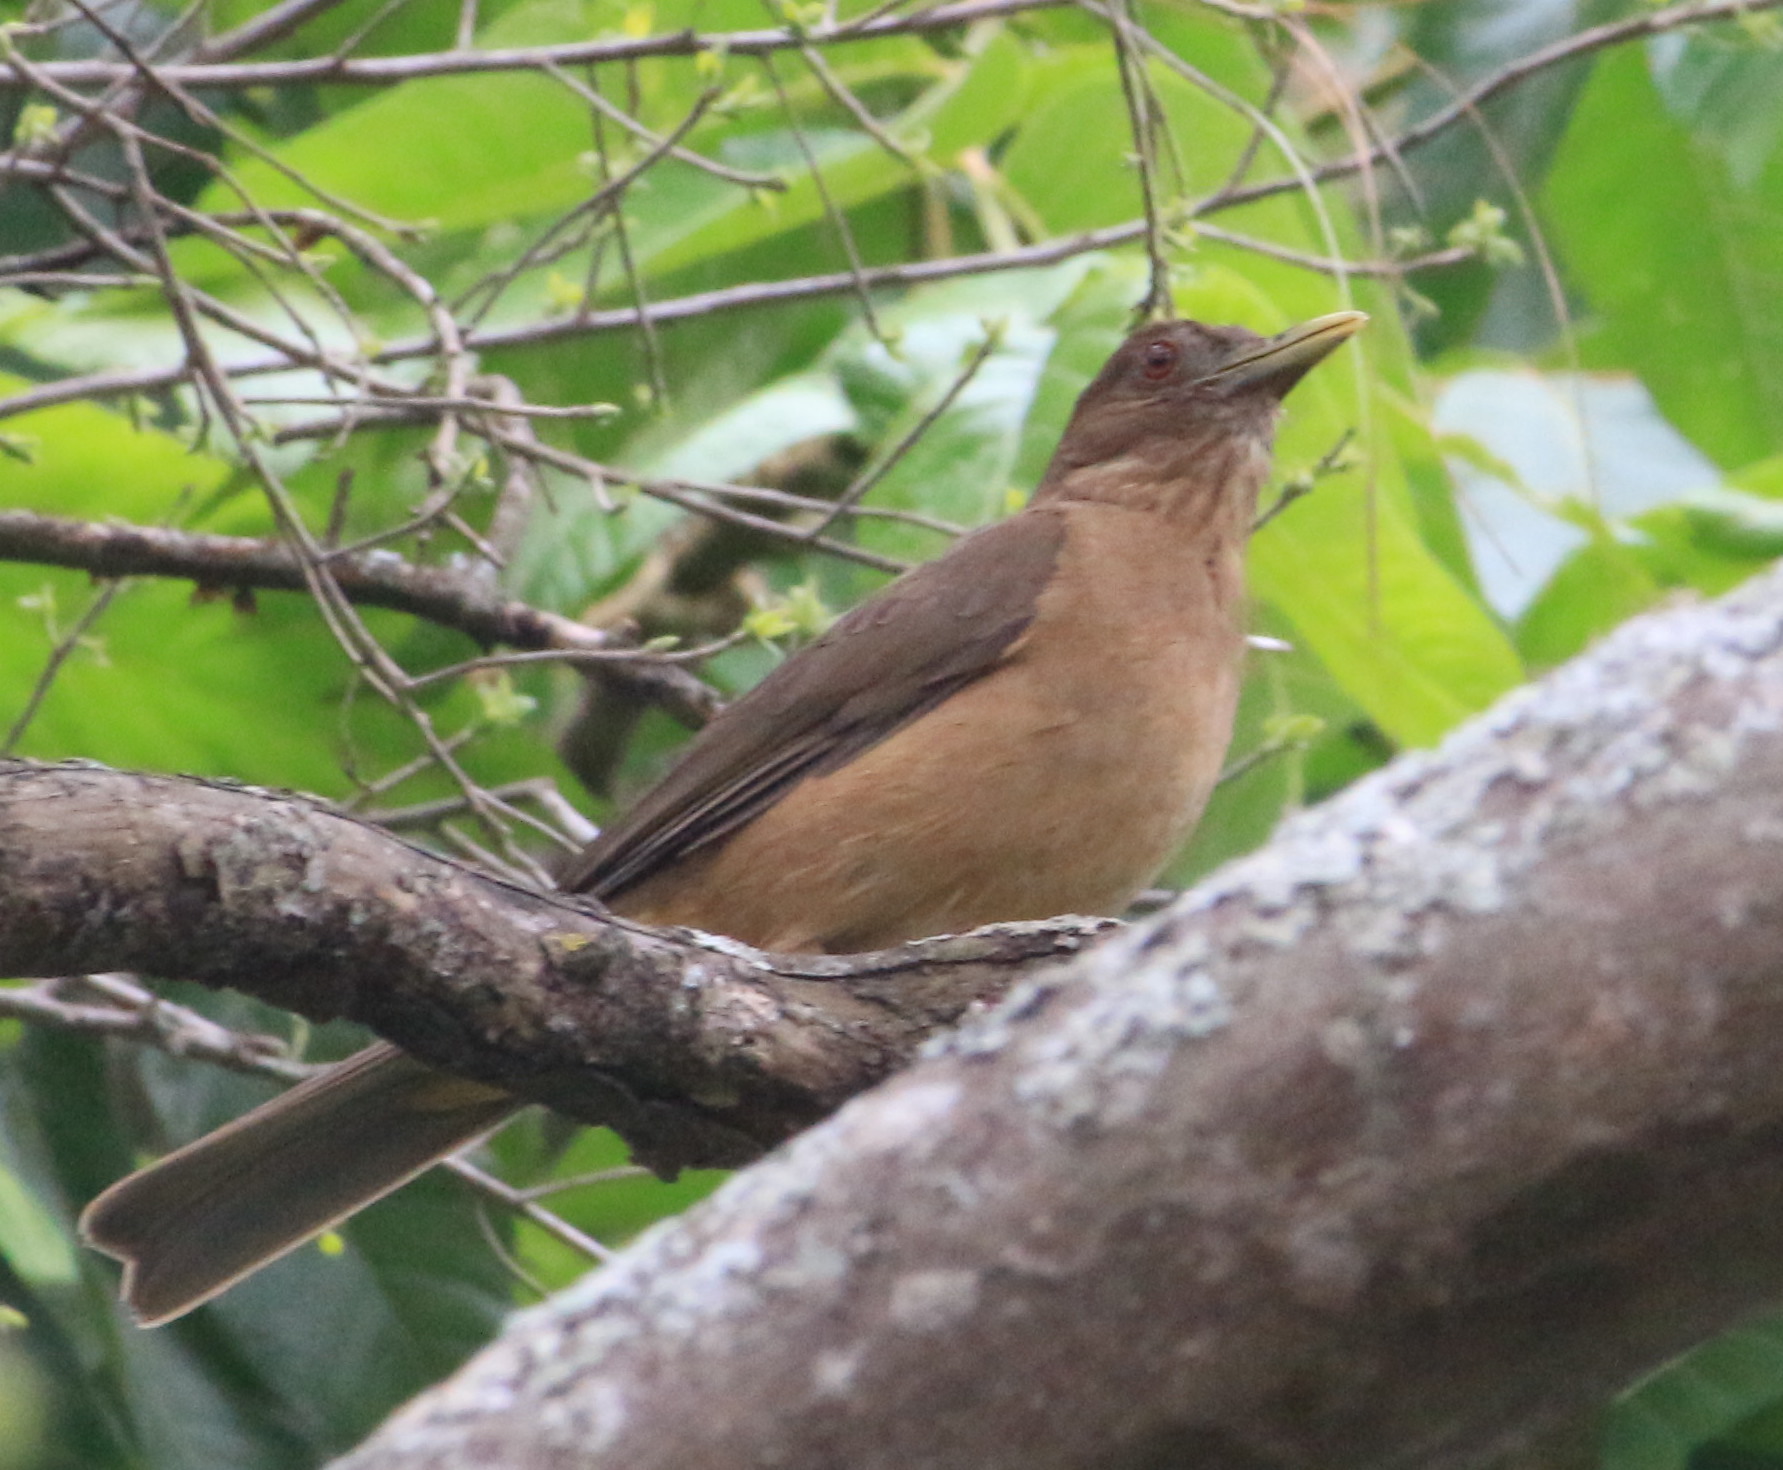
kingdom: Animalia
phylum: Chordata
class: Aves
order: Passeriformes
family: Turdidae
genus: Turdus
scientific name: Turdus grayi
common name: Clay-colored thrush
